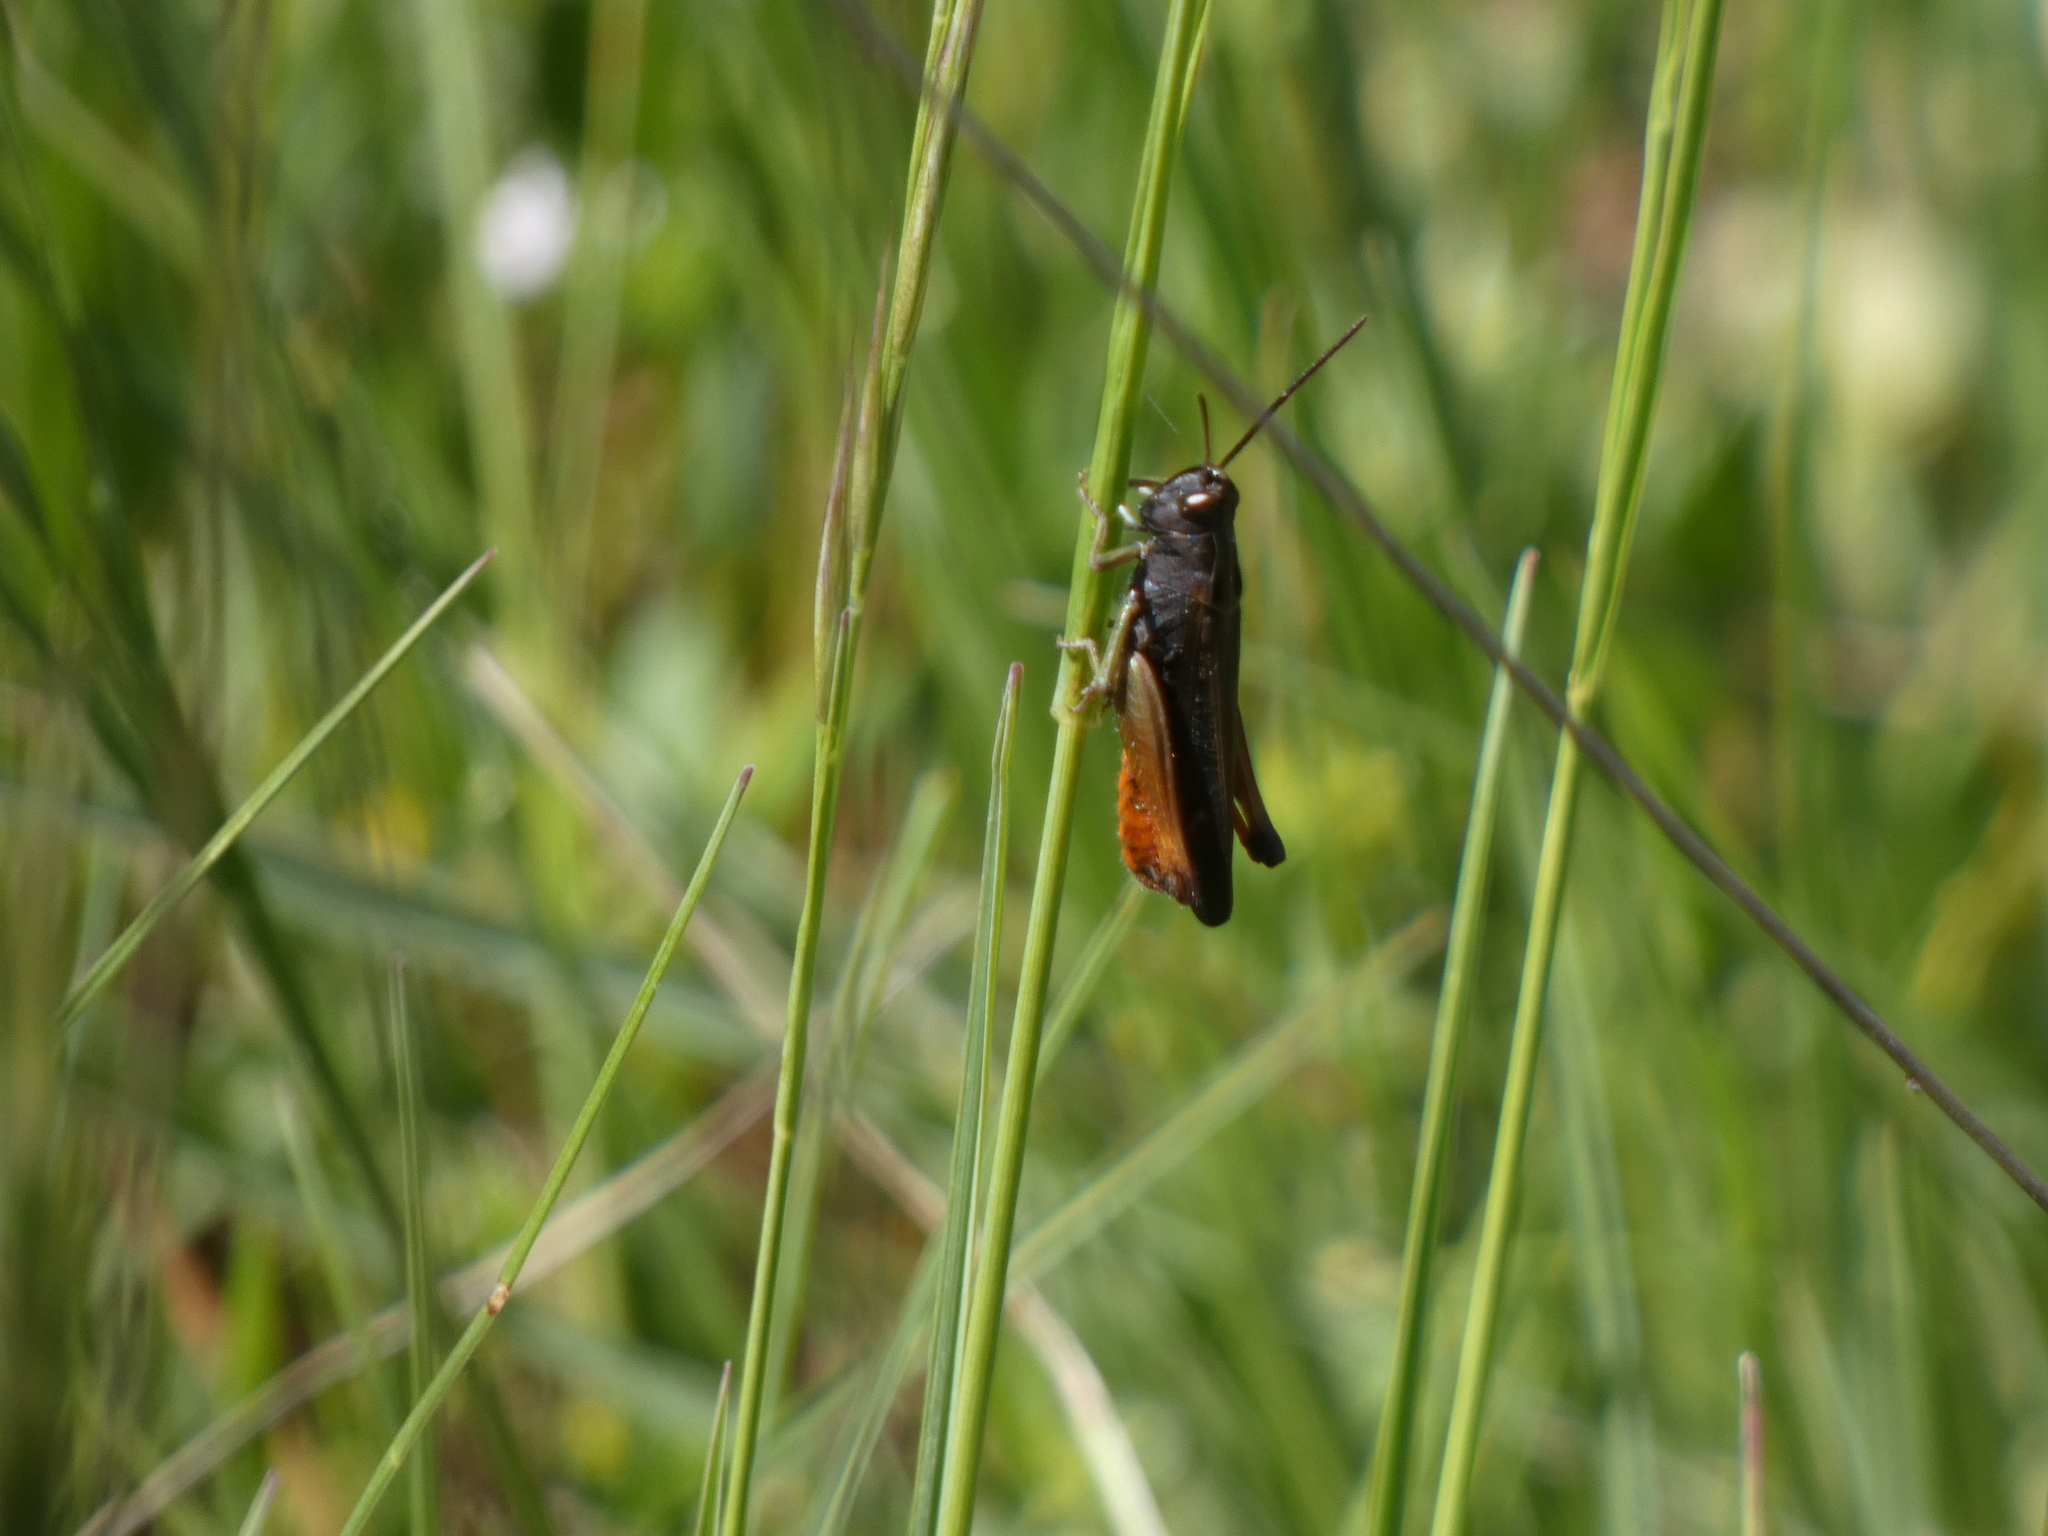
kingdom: Animalia
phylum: Arthropoda
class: Insecta
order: Orthoptera
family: Acrididae
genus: Omocestus
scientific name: Omocestus rufipes
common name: Woodland grasshopper
